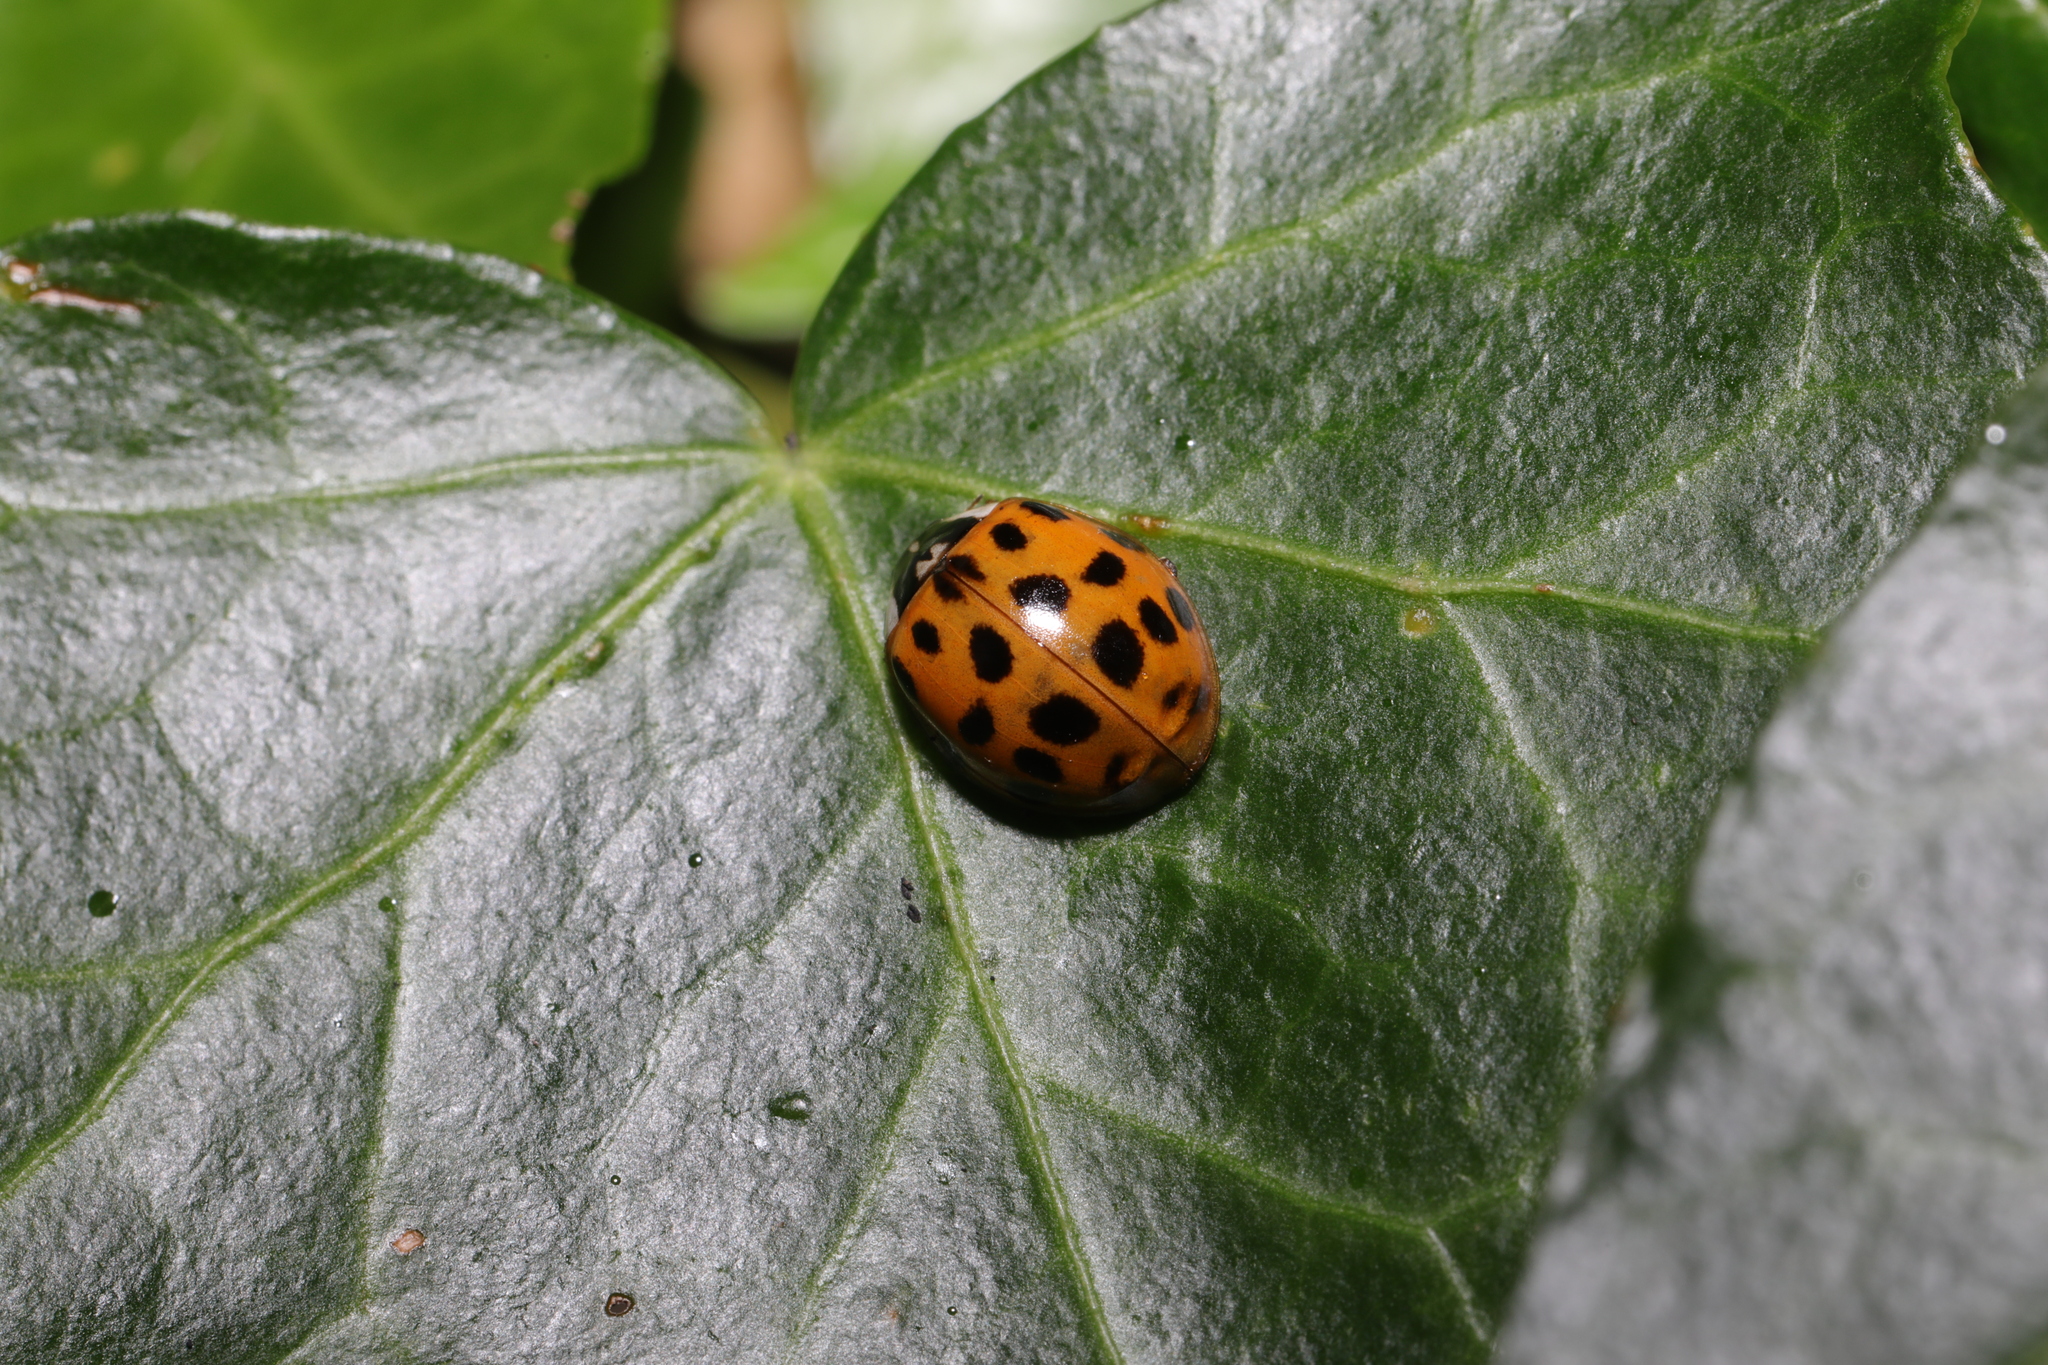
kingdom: Animalia
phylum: Arthropoda
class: Insecta
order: Coleoptera
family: Coccinellidae
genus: Harmonia
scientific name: Harmonia axyridis
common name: Harlequin ladybird
